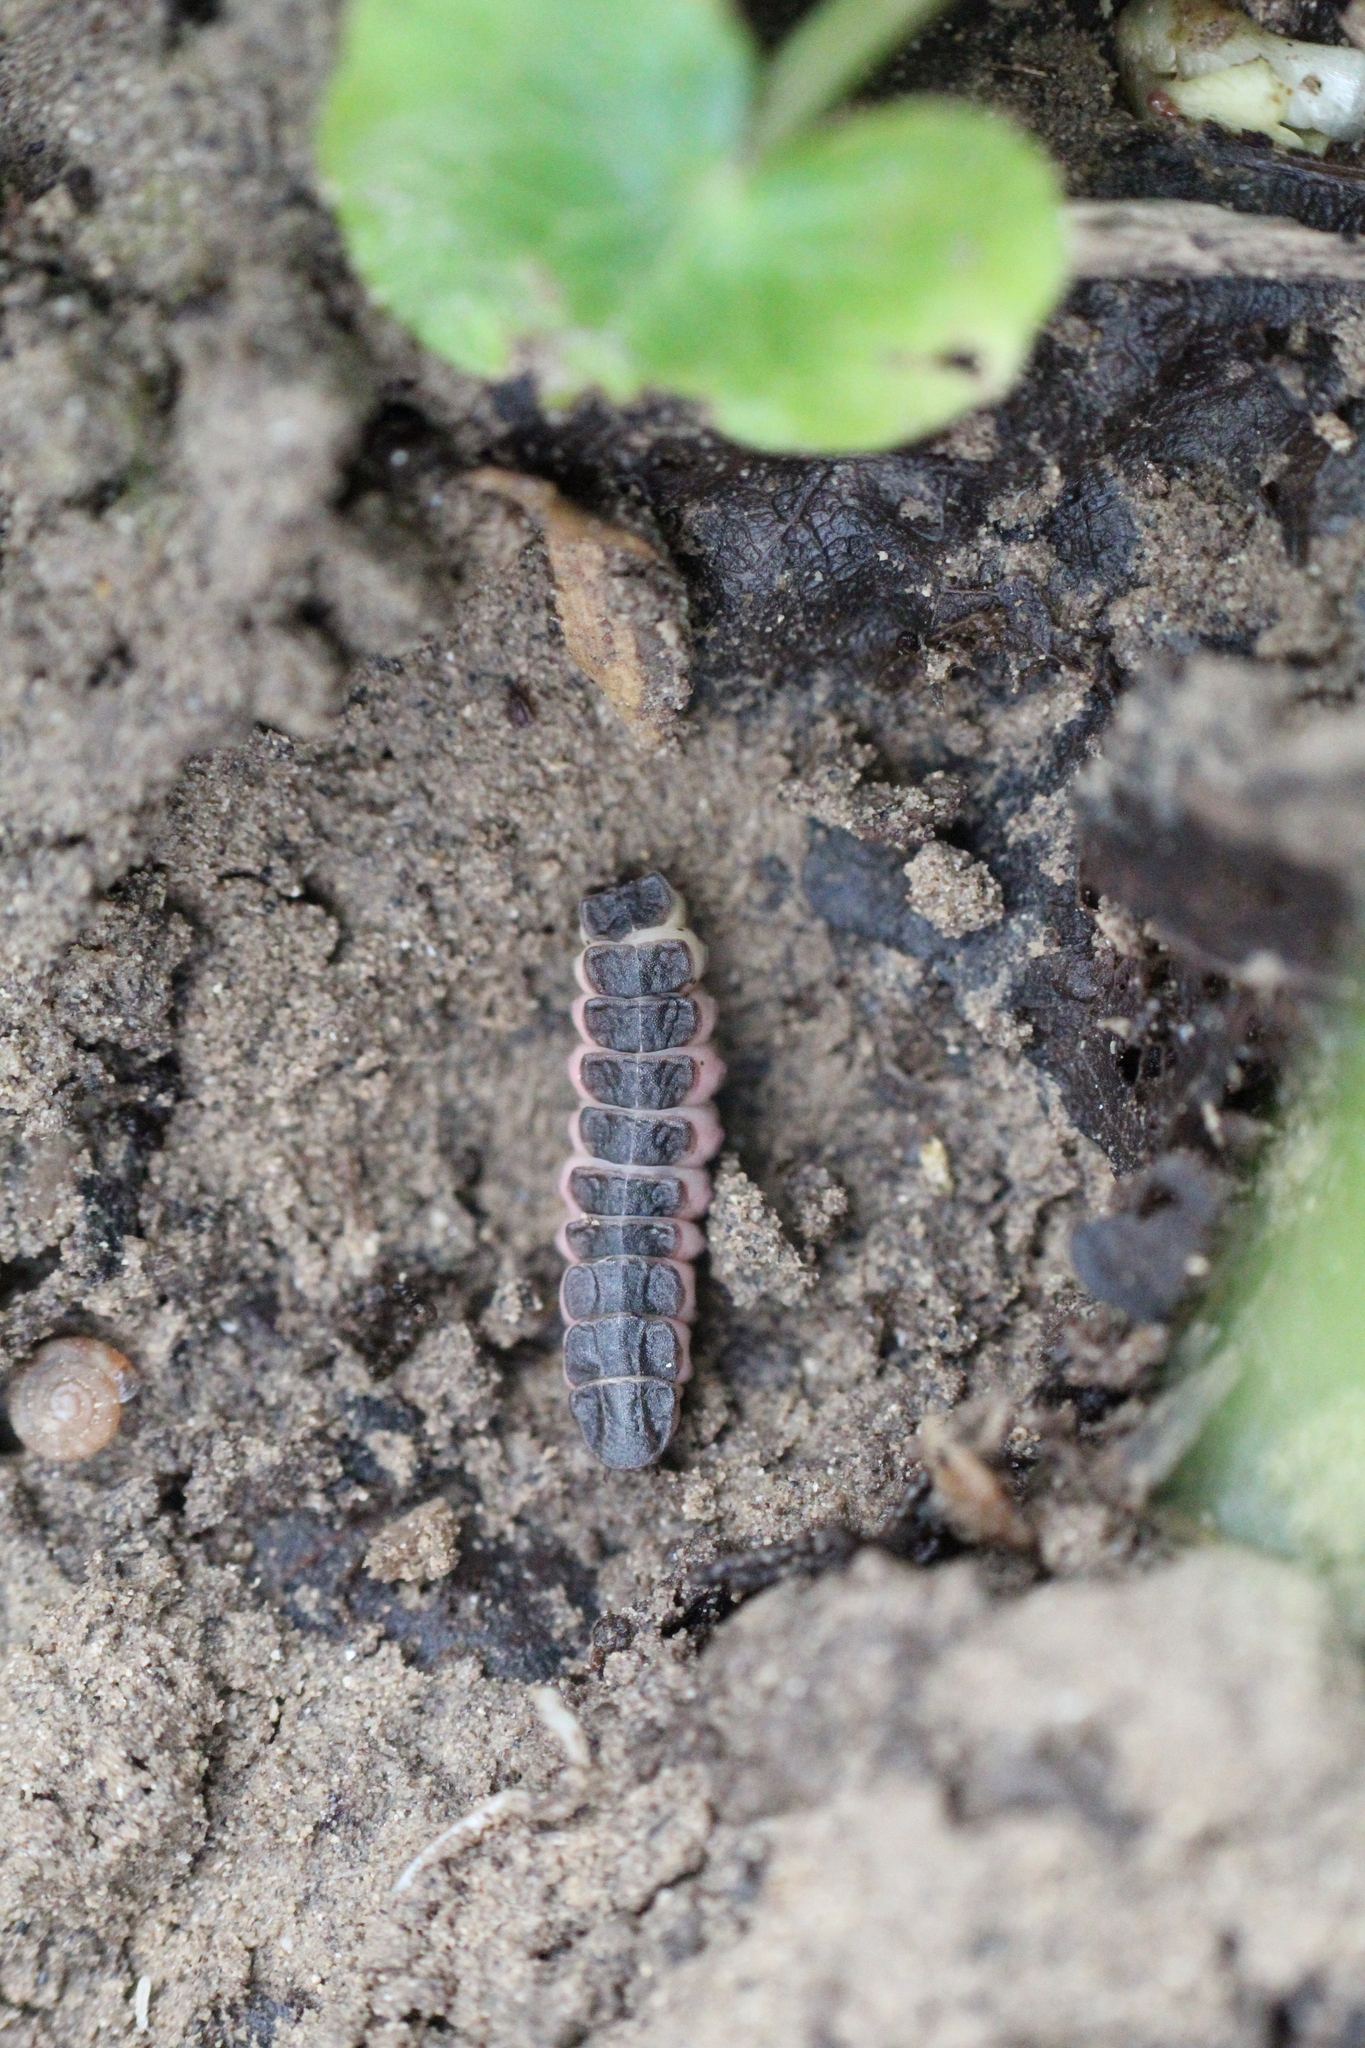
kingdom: Animalia
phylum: Arthropoda
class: Insecta
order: Coleoptera
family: Lampyridae
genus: Phosphaenus
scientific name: Phosphaenus hemipterus
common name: Short-winged firefly
